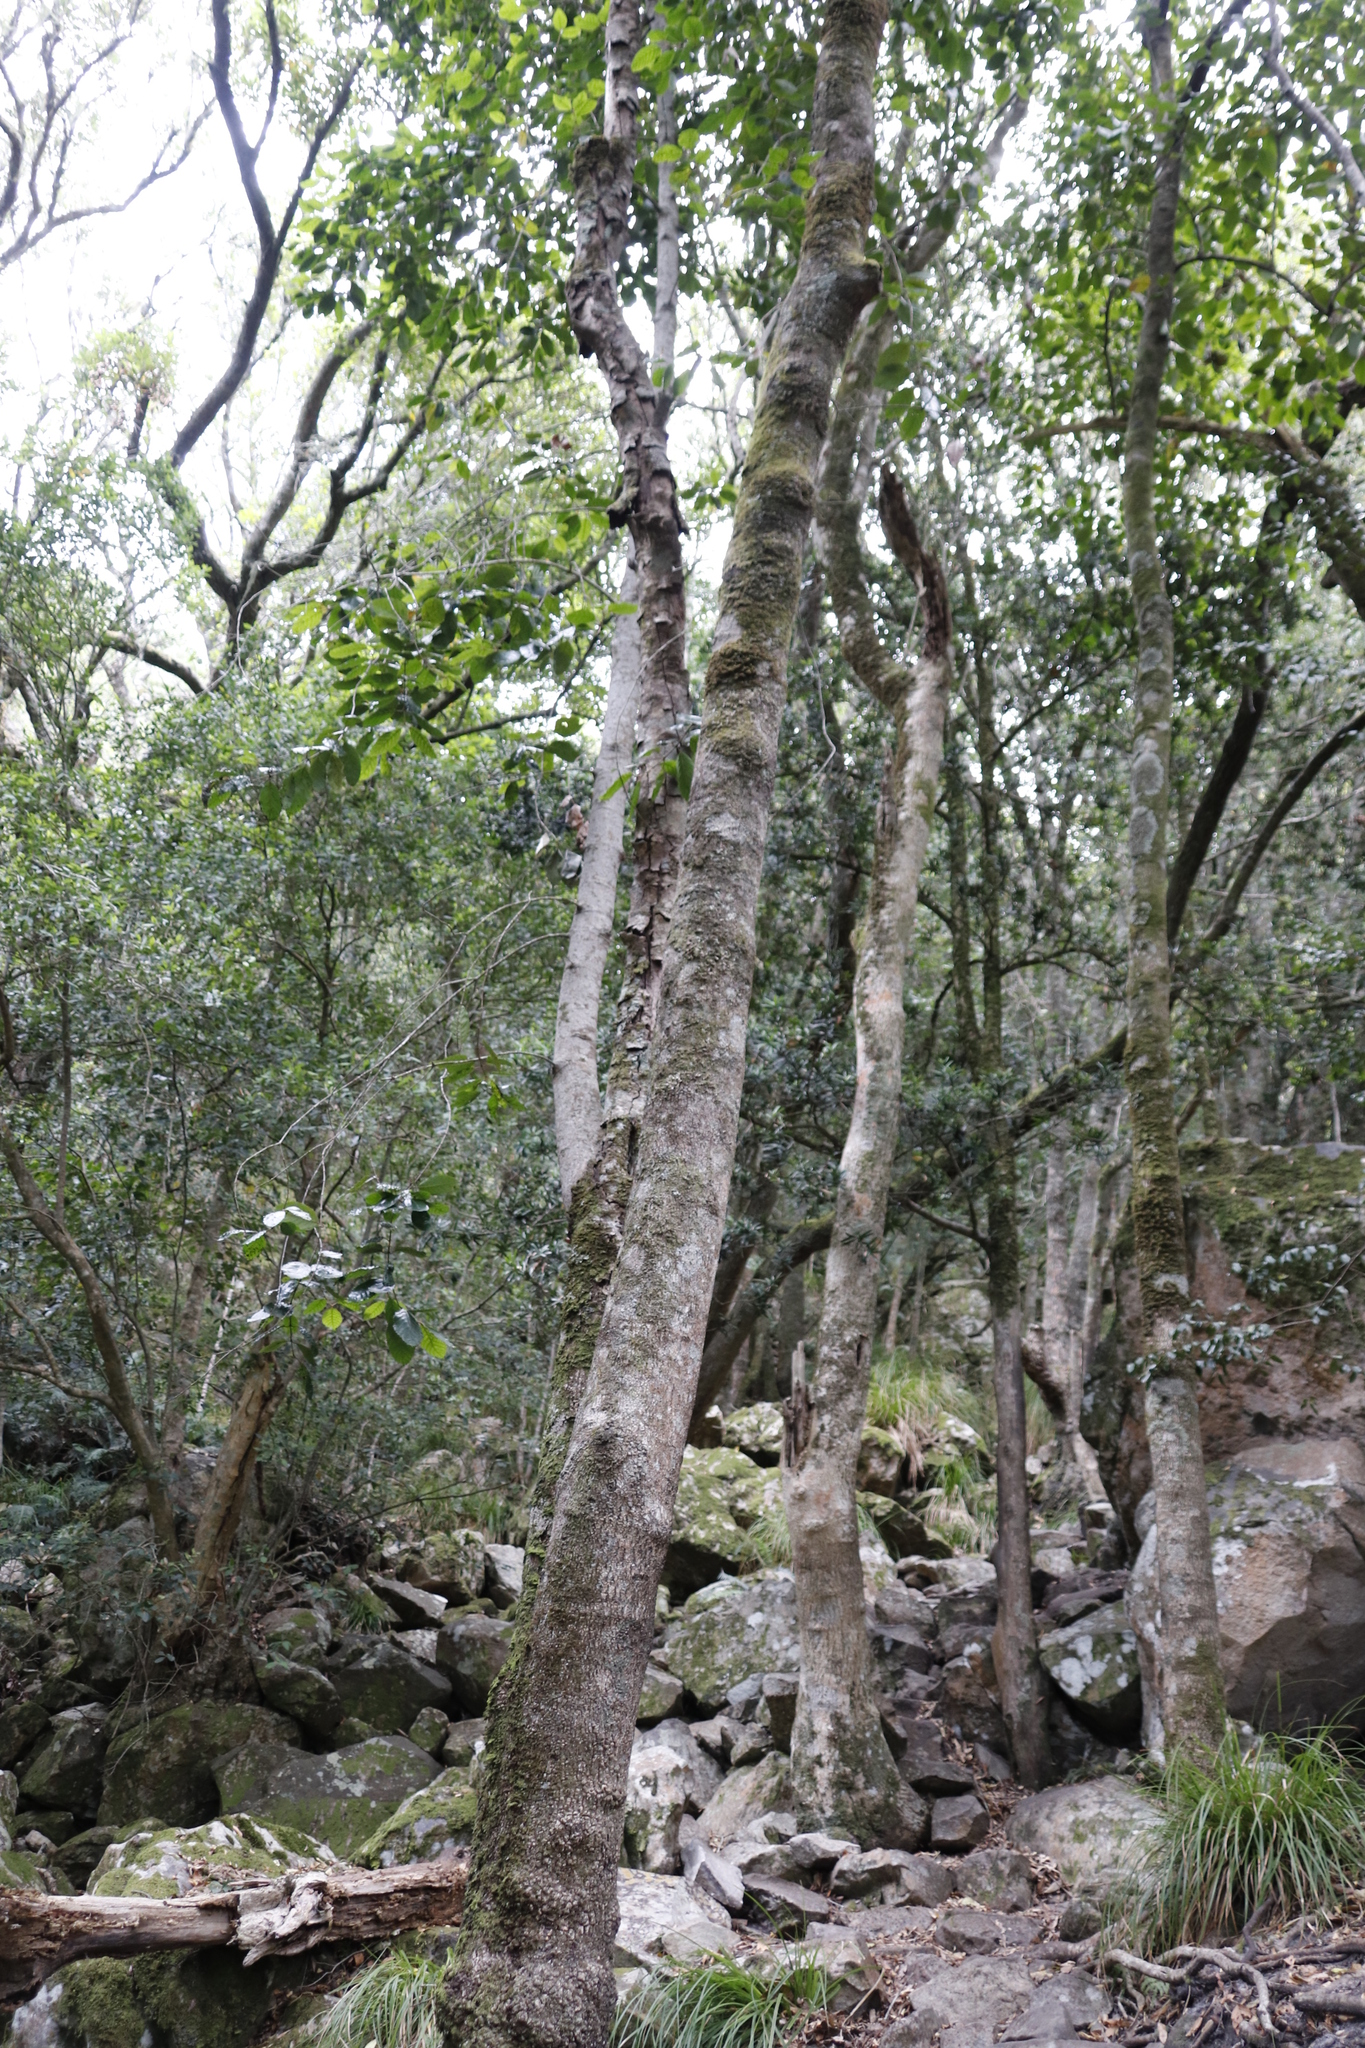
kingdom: Plantae
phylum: Tracheophyta
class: Magnoliopsida
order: Cornales
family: Curtisiaceae
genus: Curtisia
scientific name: Curtisia dentata
